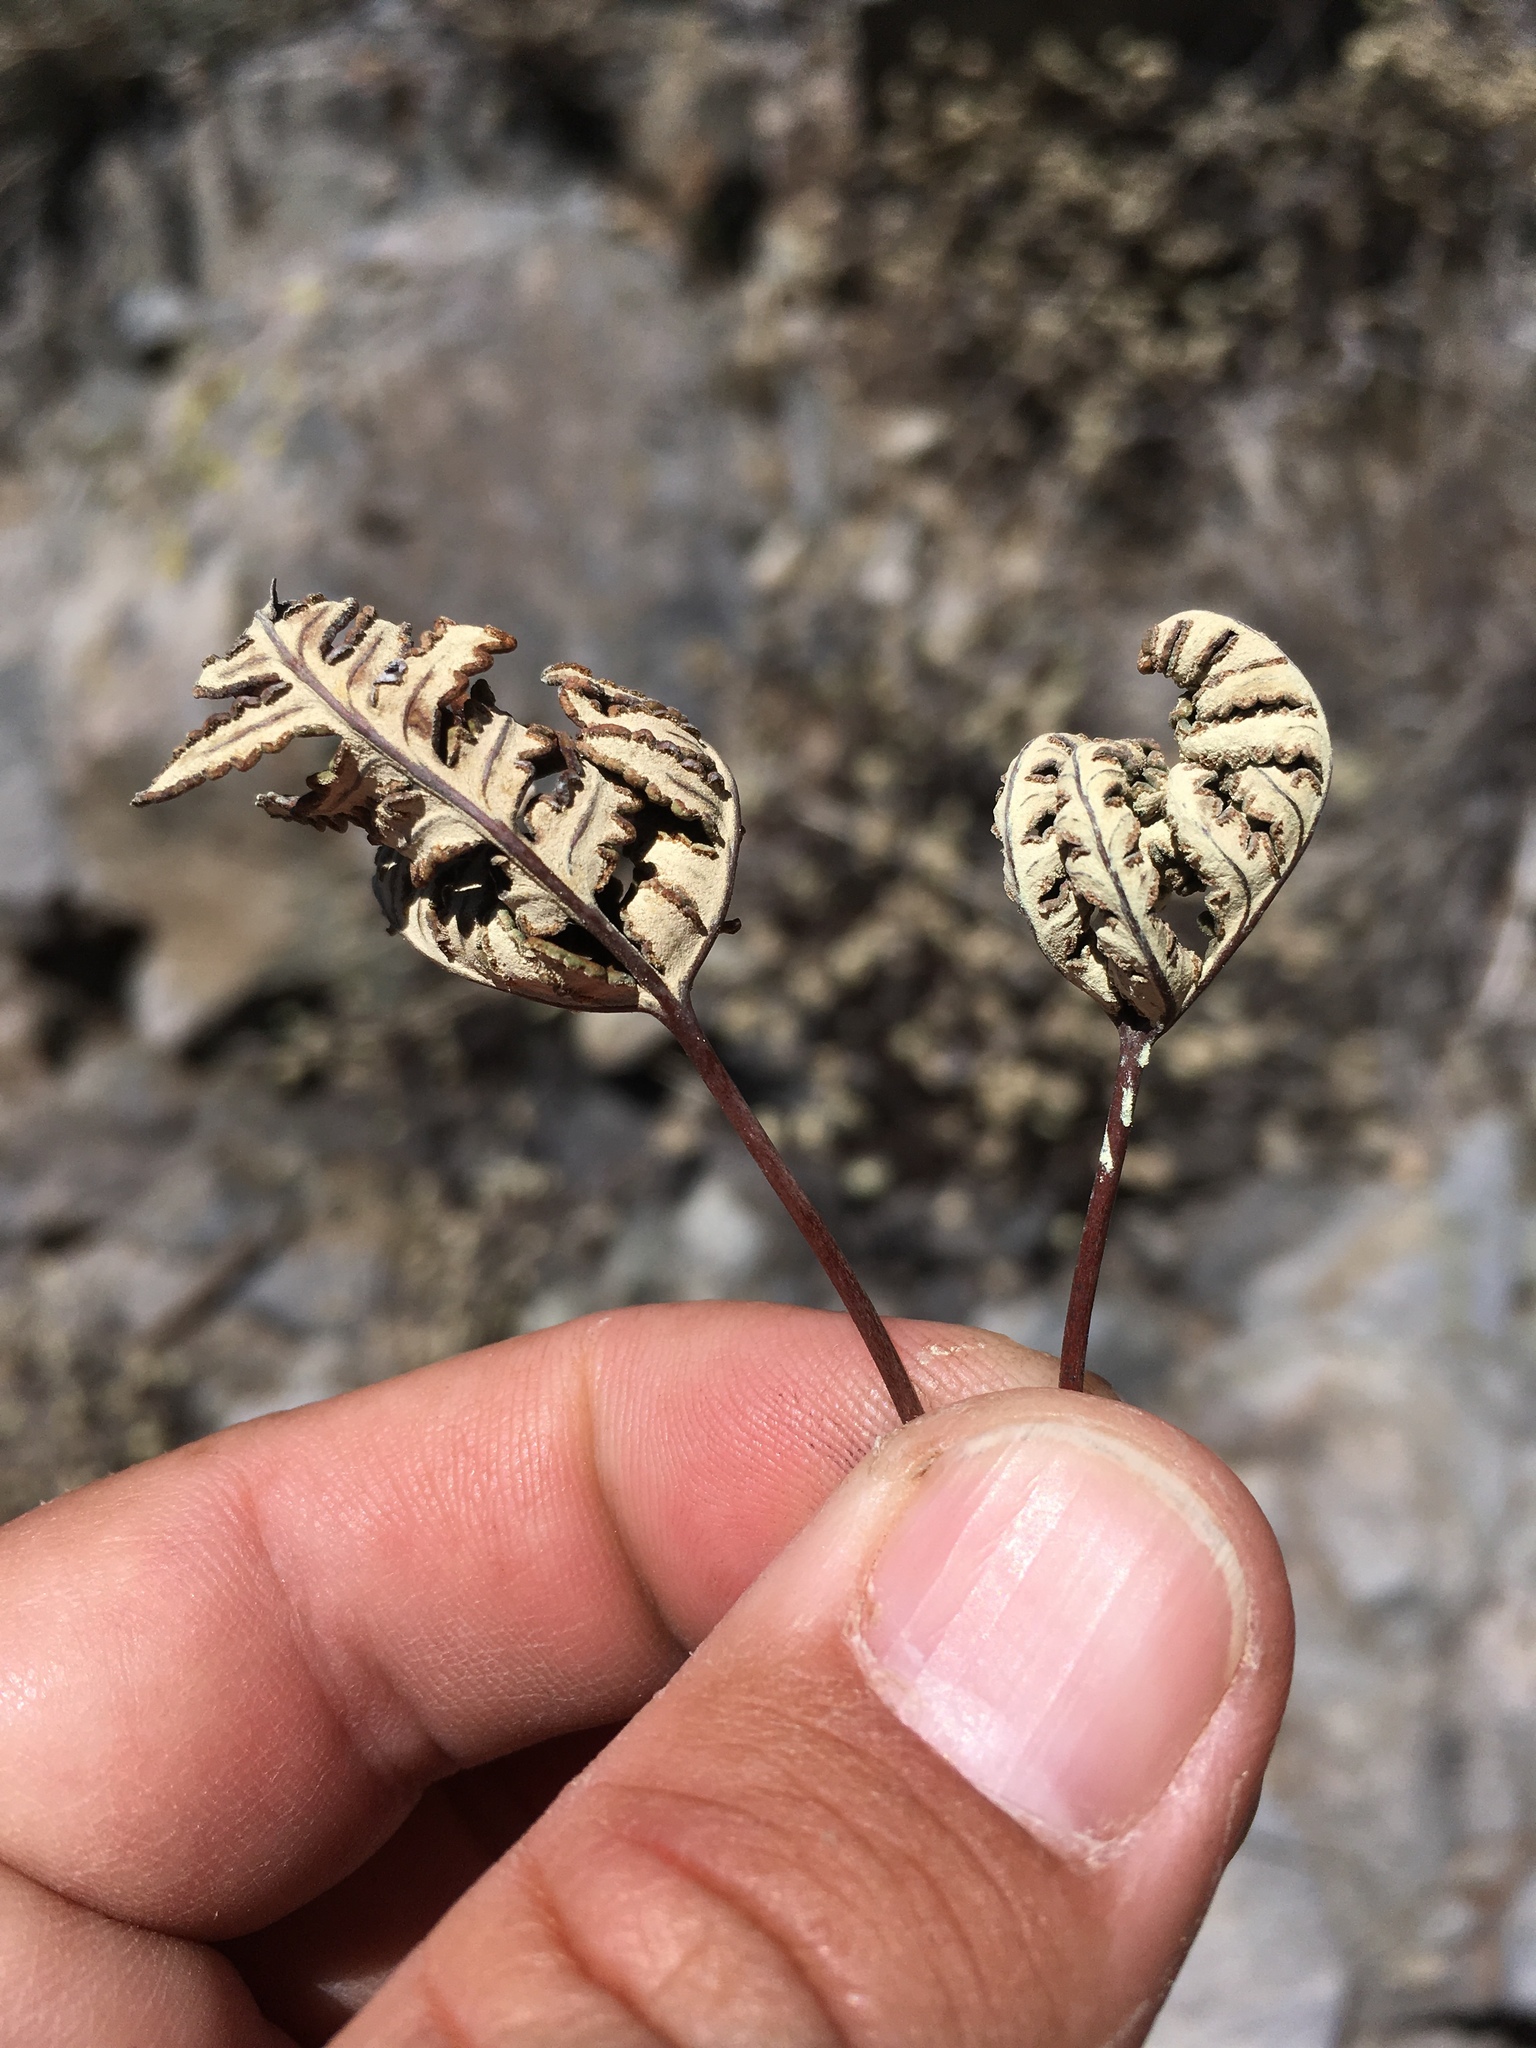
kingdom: Plantae
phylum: Tracheophyta
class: Polypodiopsida
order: Polypodiales
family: Pteridaceae
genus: Notholaena
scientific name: Notholaena standleyi
